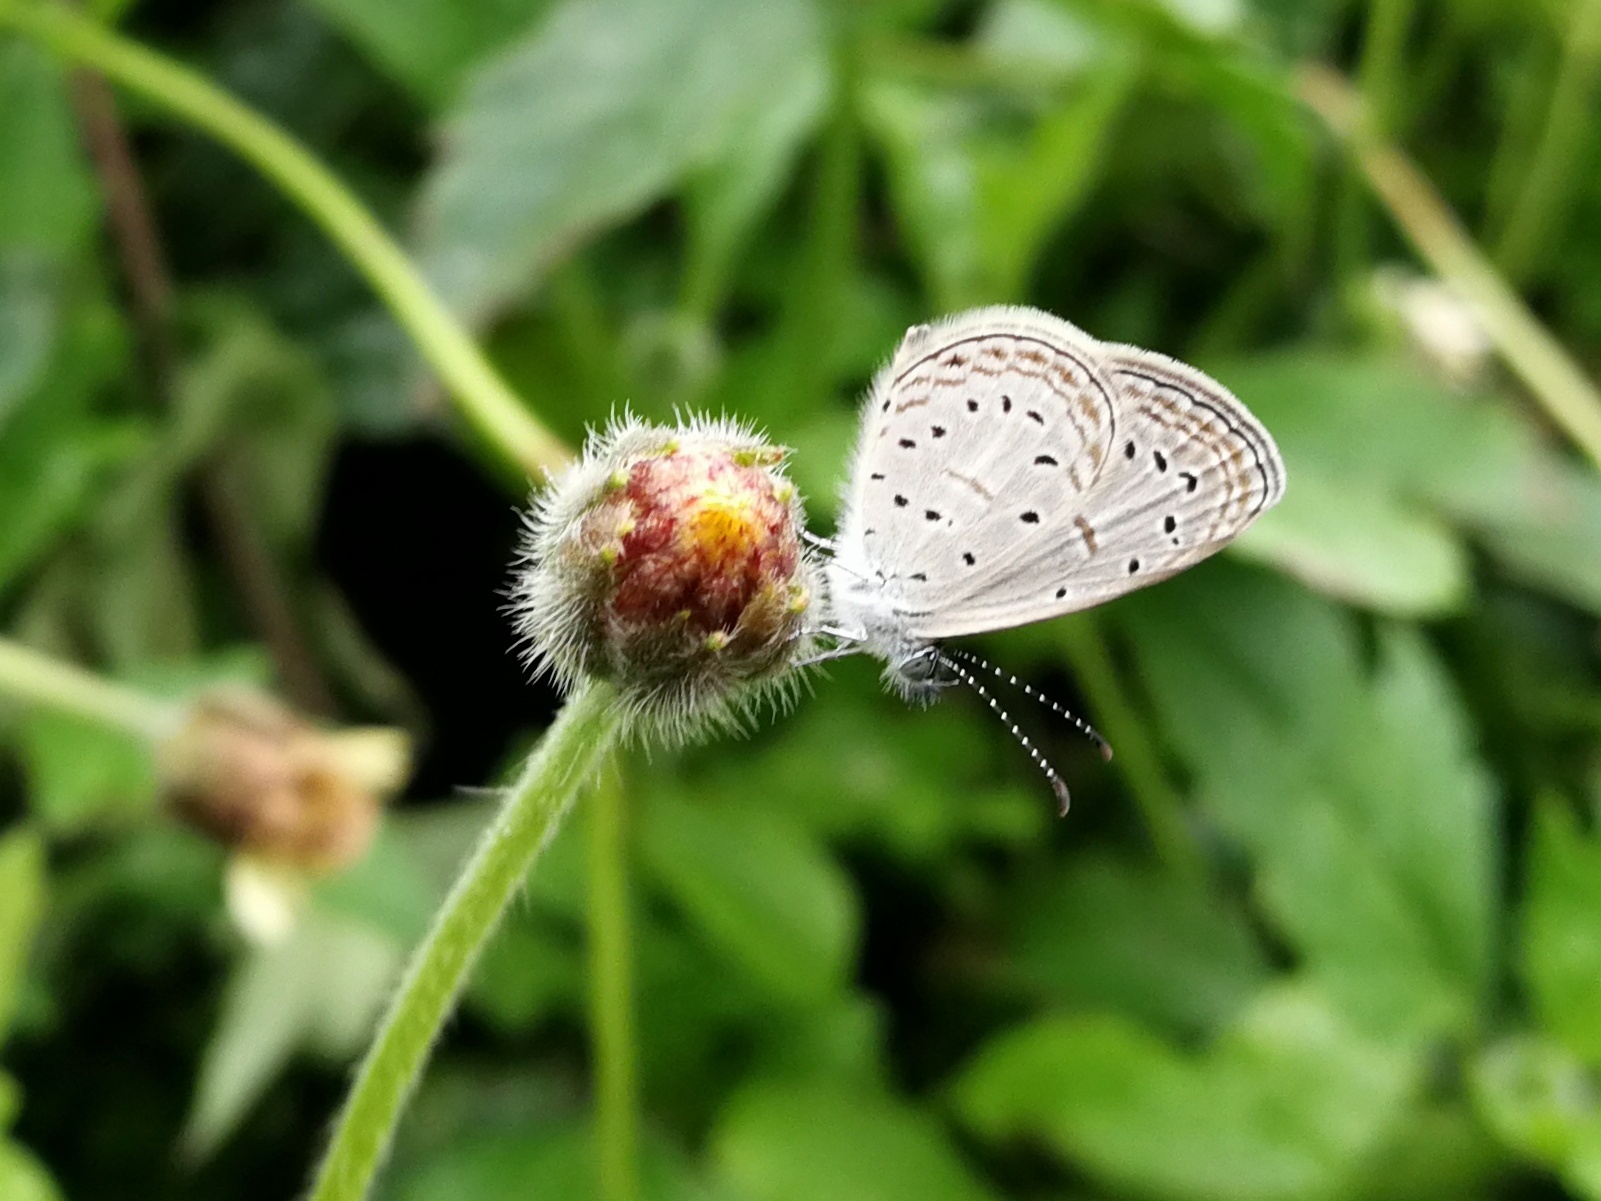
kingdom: Animalia
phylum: Arthropoda
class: Insecta
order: Lepidoptera
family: Lycaenidae
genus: Zizula
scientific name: Zizula hylax
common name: Gaika blue
